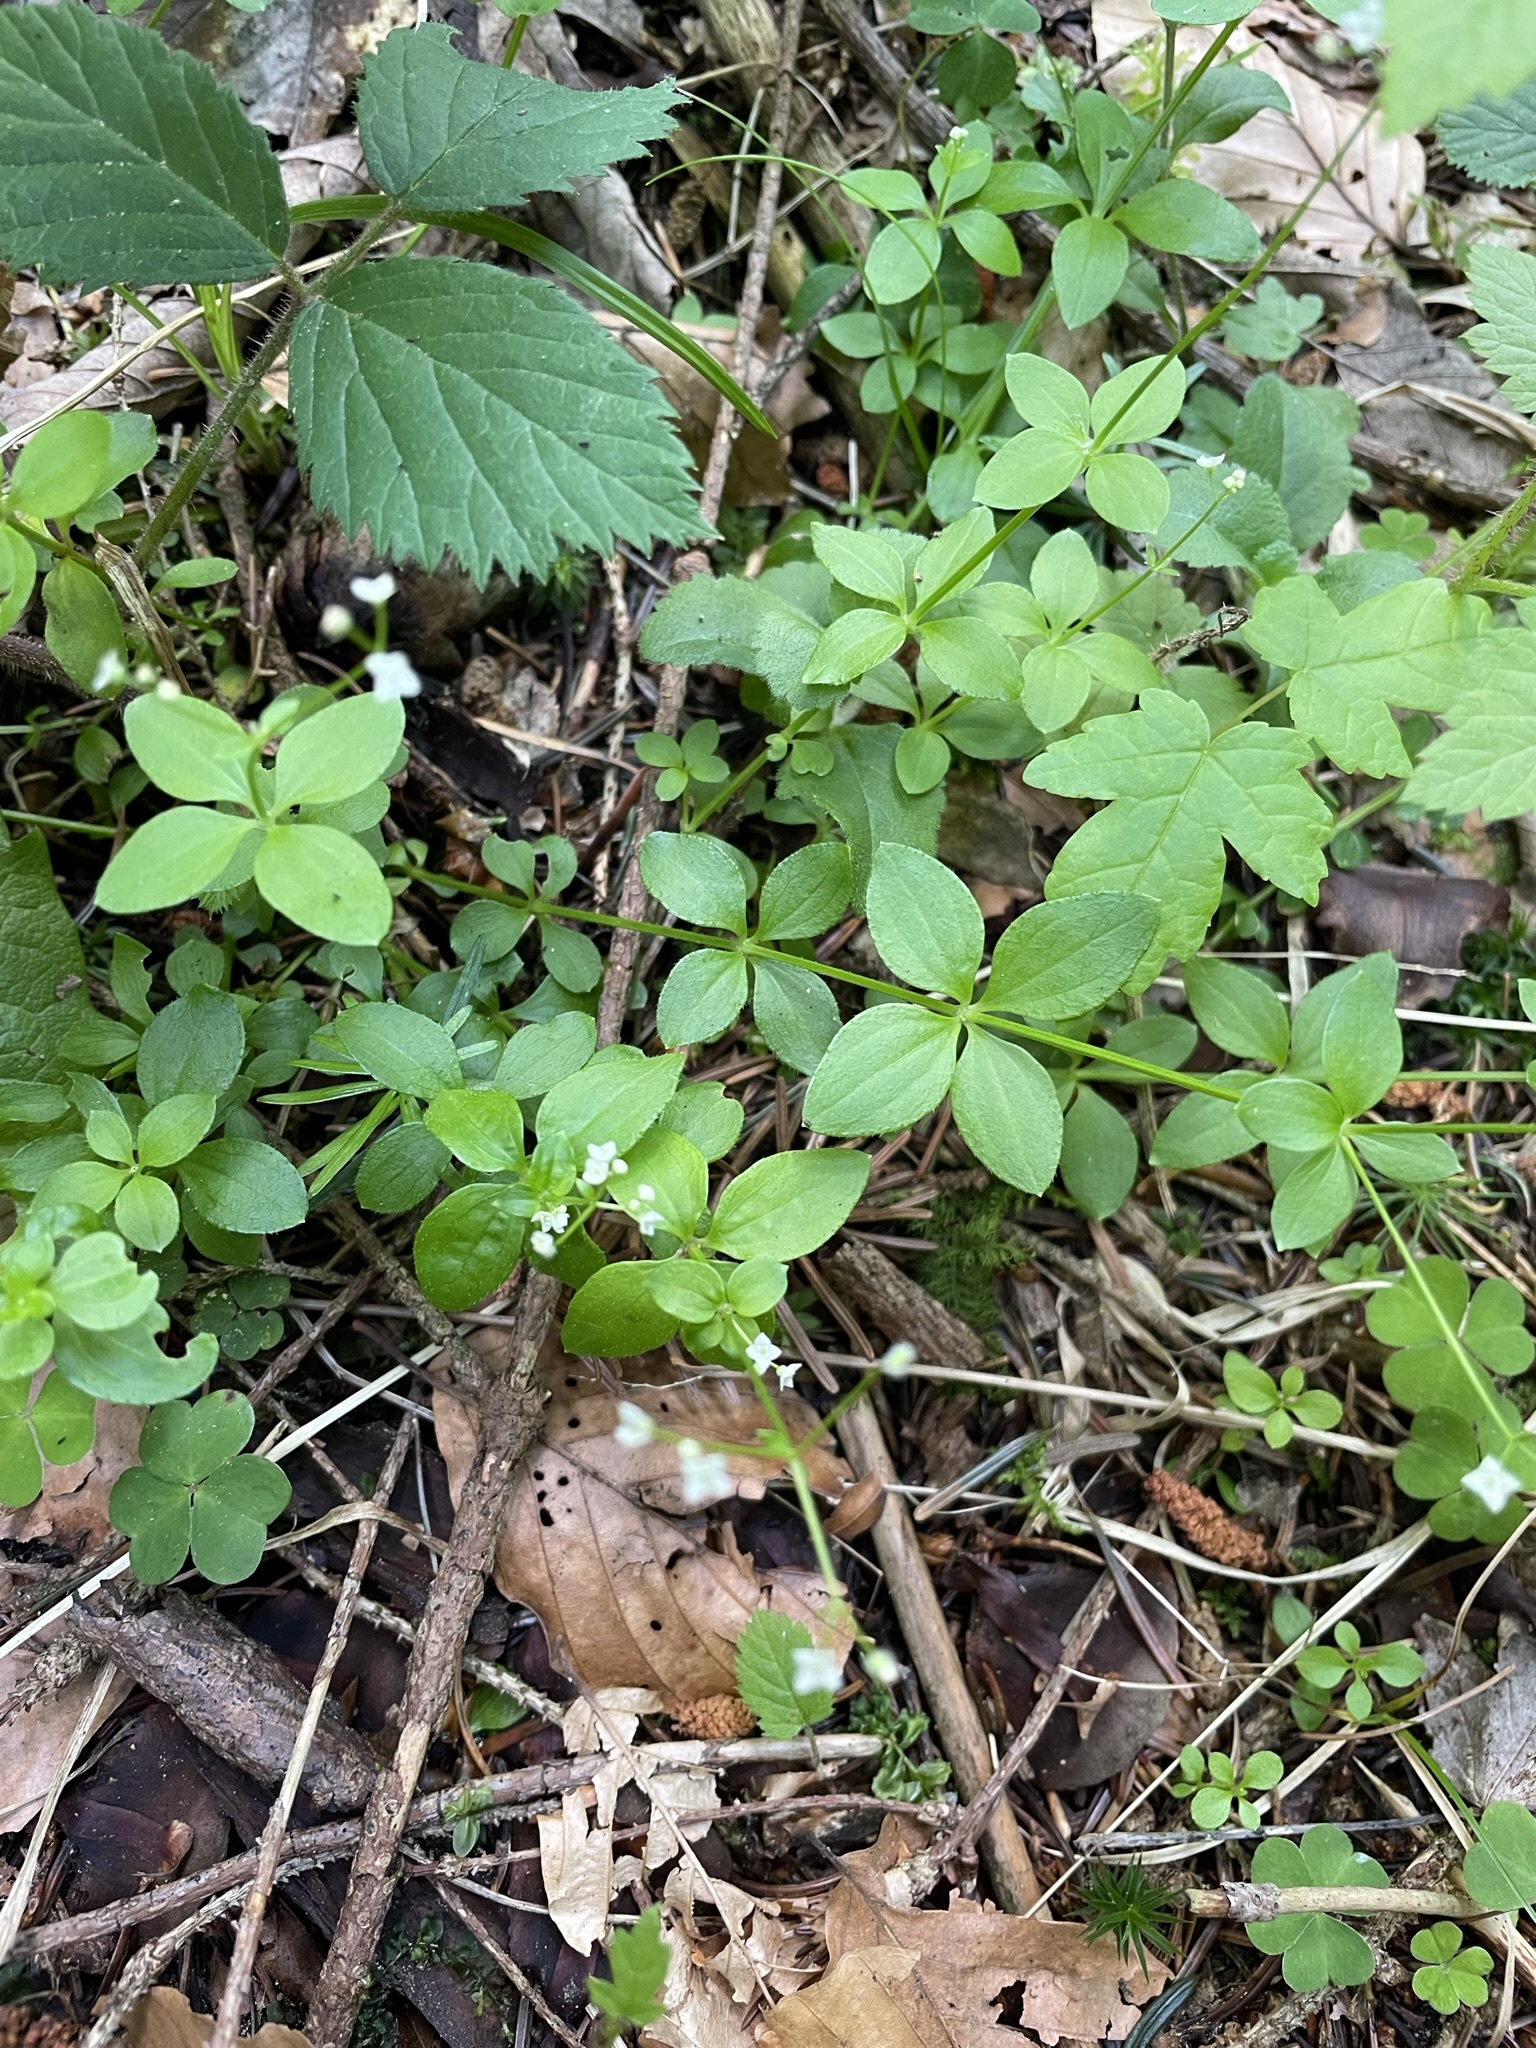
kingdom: Plantae
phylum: Tracheophyta
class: Magnoliopsida
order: Gentianales
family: Rubiaceae
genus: Galium
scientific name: Galium rotundifolium
